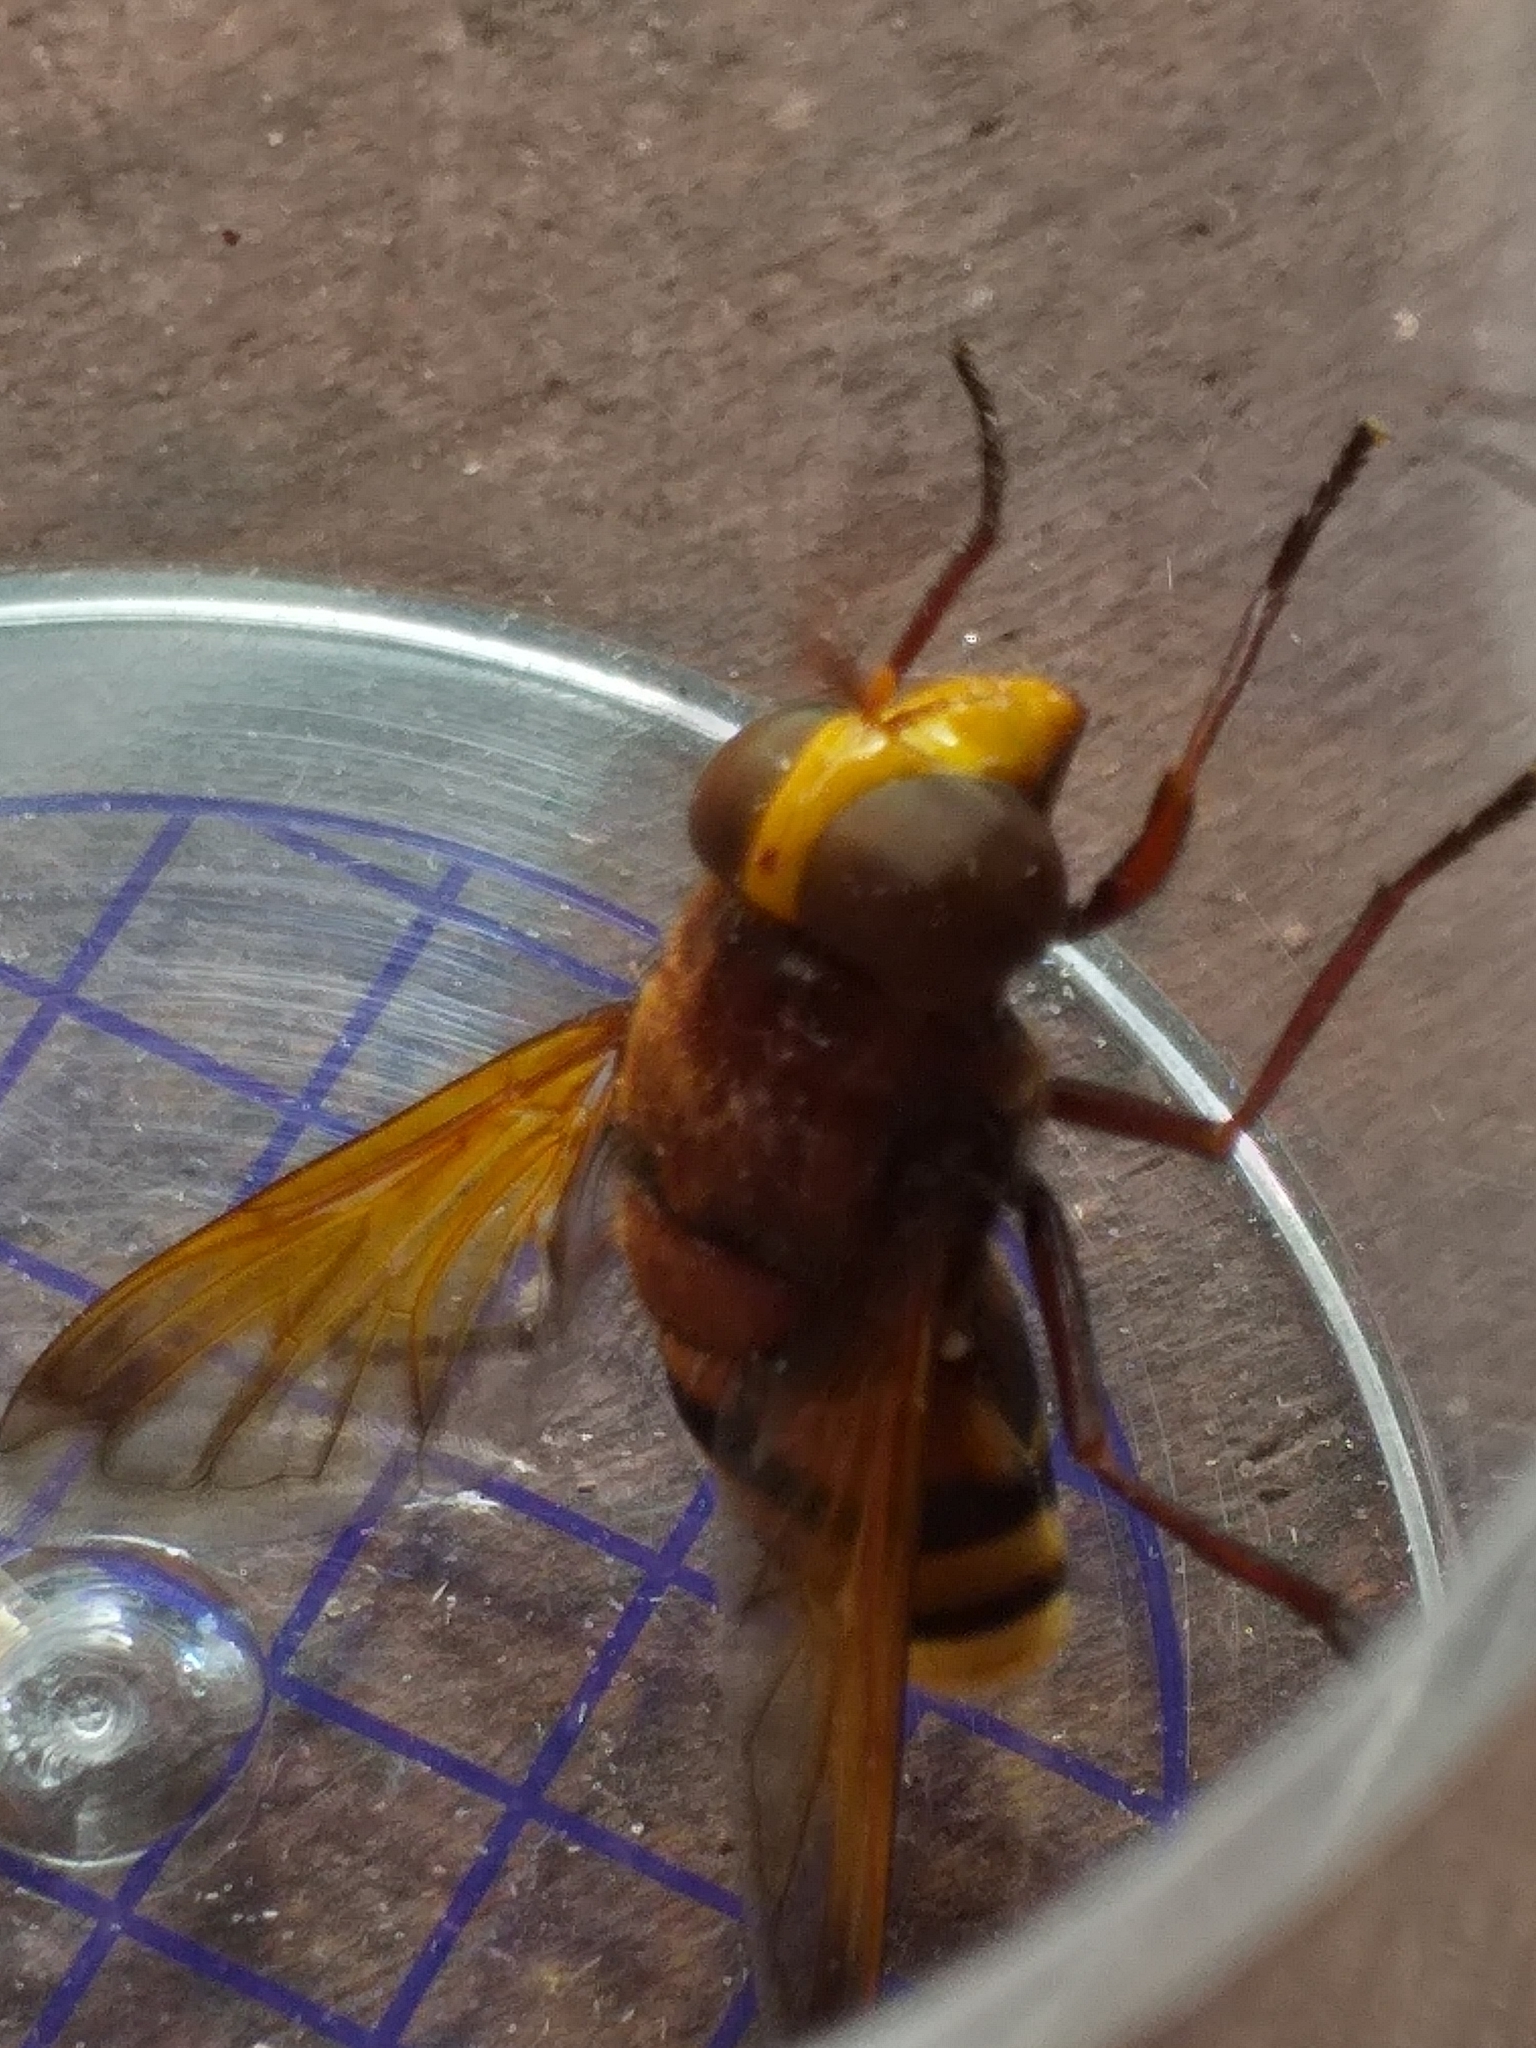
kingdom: Animalia
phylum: Arthropoda
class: Insecta
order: Diptera
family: Syrphidae
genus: Volucella
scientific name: Volucella zonaria
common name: Hornet hoverfly
